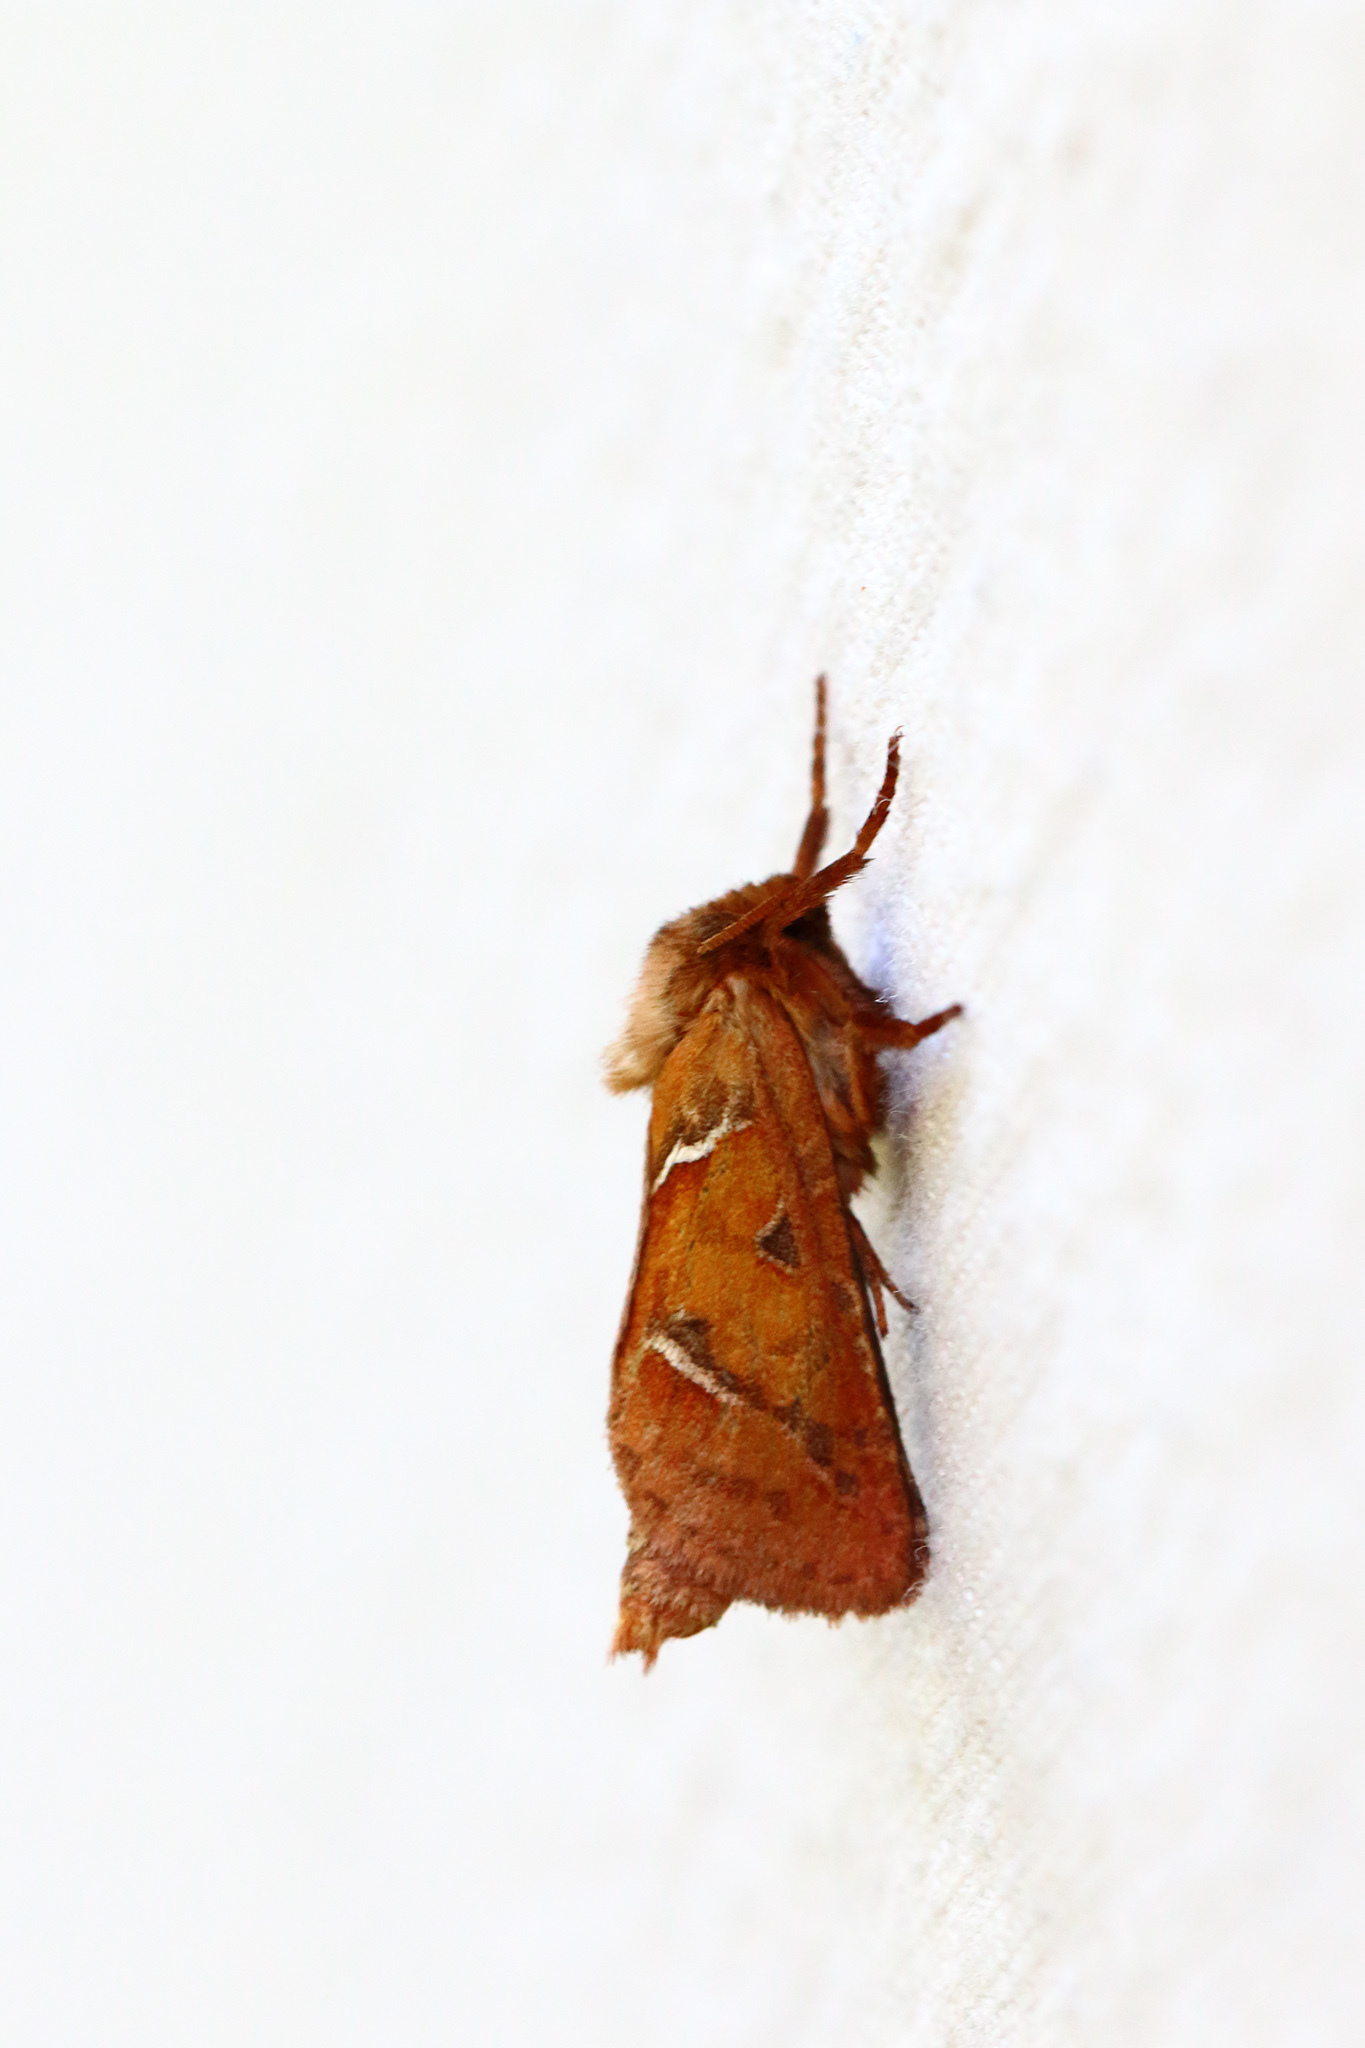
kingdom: Animalia
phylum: Arthropoda
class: Insecta
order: Lepidoptera
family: Hepialidae
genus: Triodia
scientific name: Triodia sylvina
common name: Orange swift
